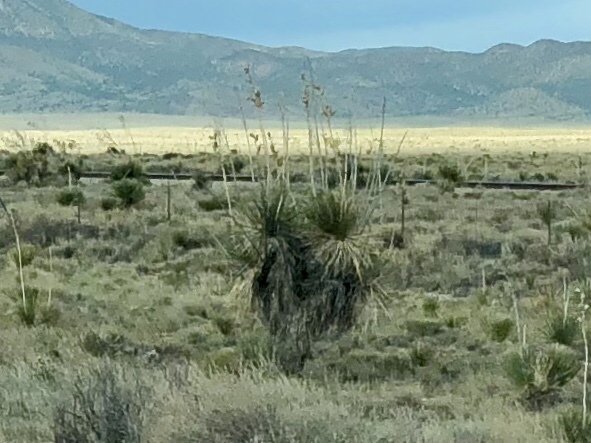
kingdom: Plantae
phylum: Tracheophyta
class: Liliopsida
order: Asparagales
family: Asparagaceae
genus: Yucca
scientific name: Yucca elata
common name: Palmella
